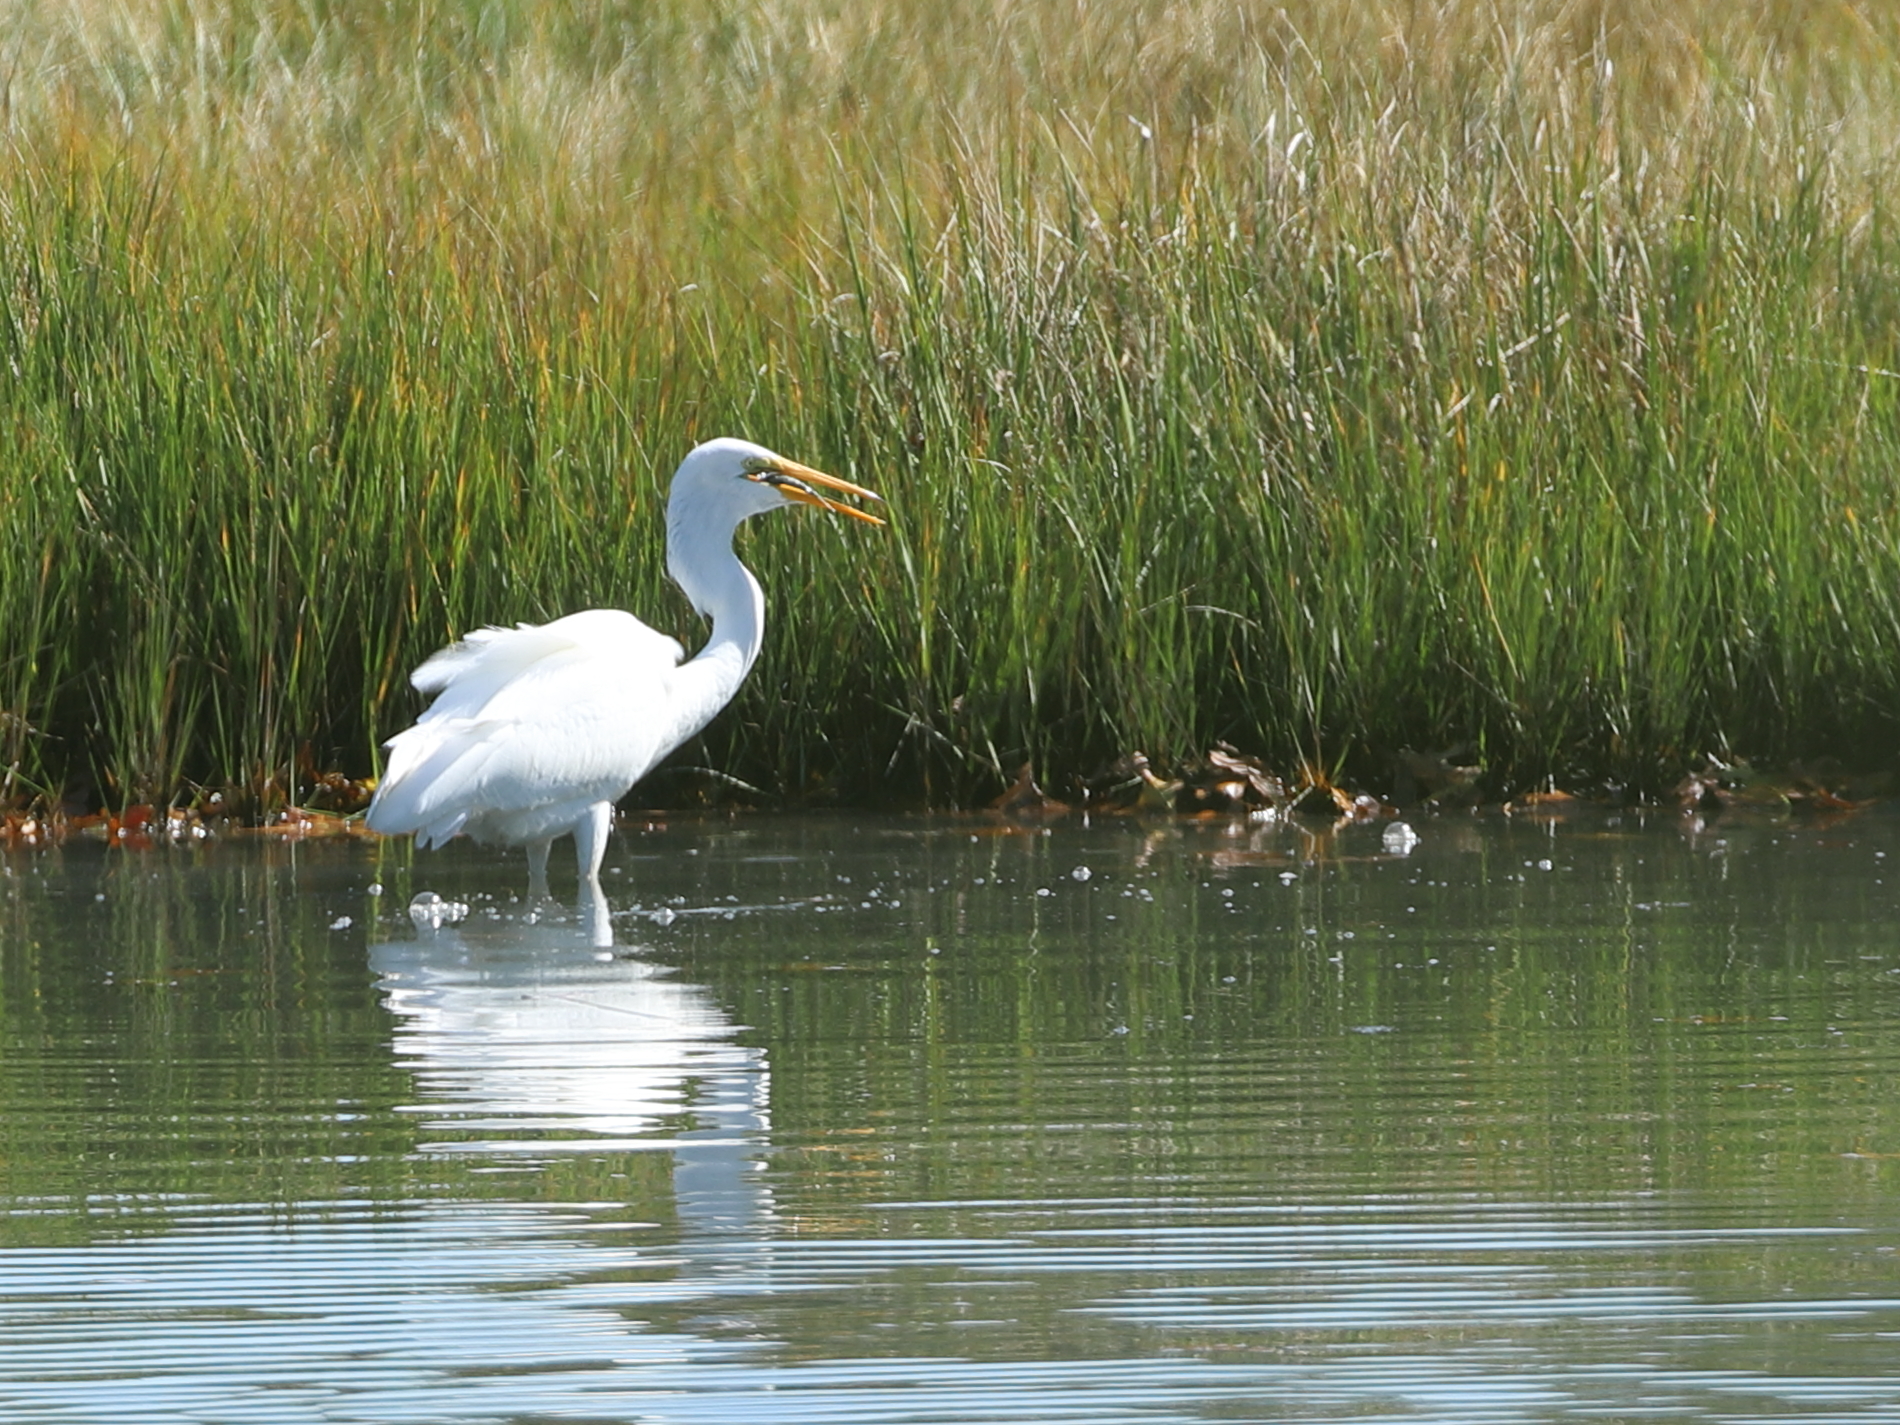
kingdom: Animalia
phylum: Chordata
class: Aves
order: Pelecaniformes
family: Ardeidae
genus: Ardea
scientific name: Ardea alba
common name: Great egret
